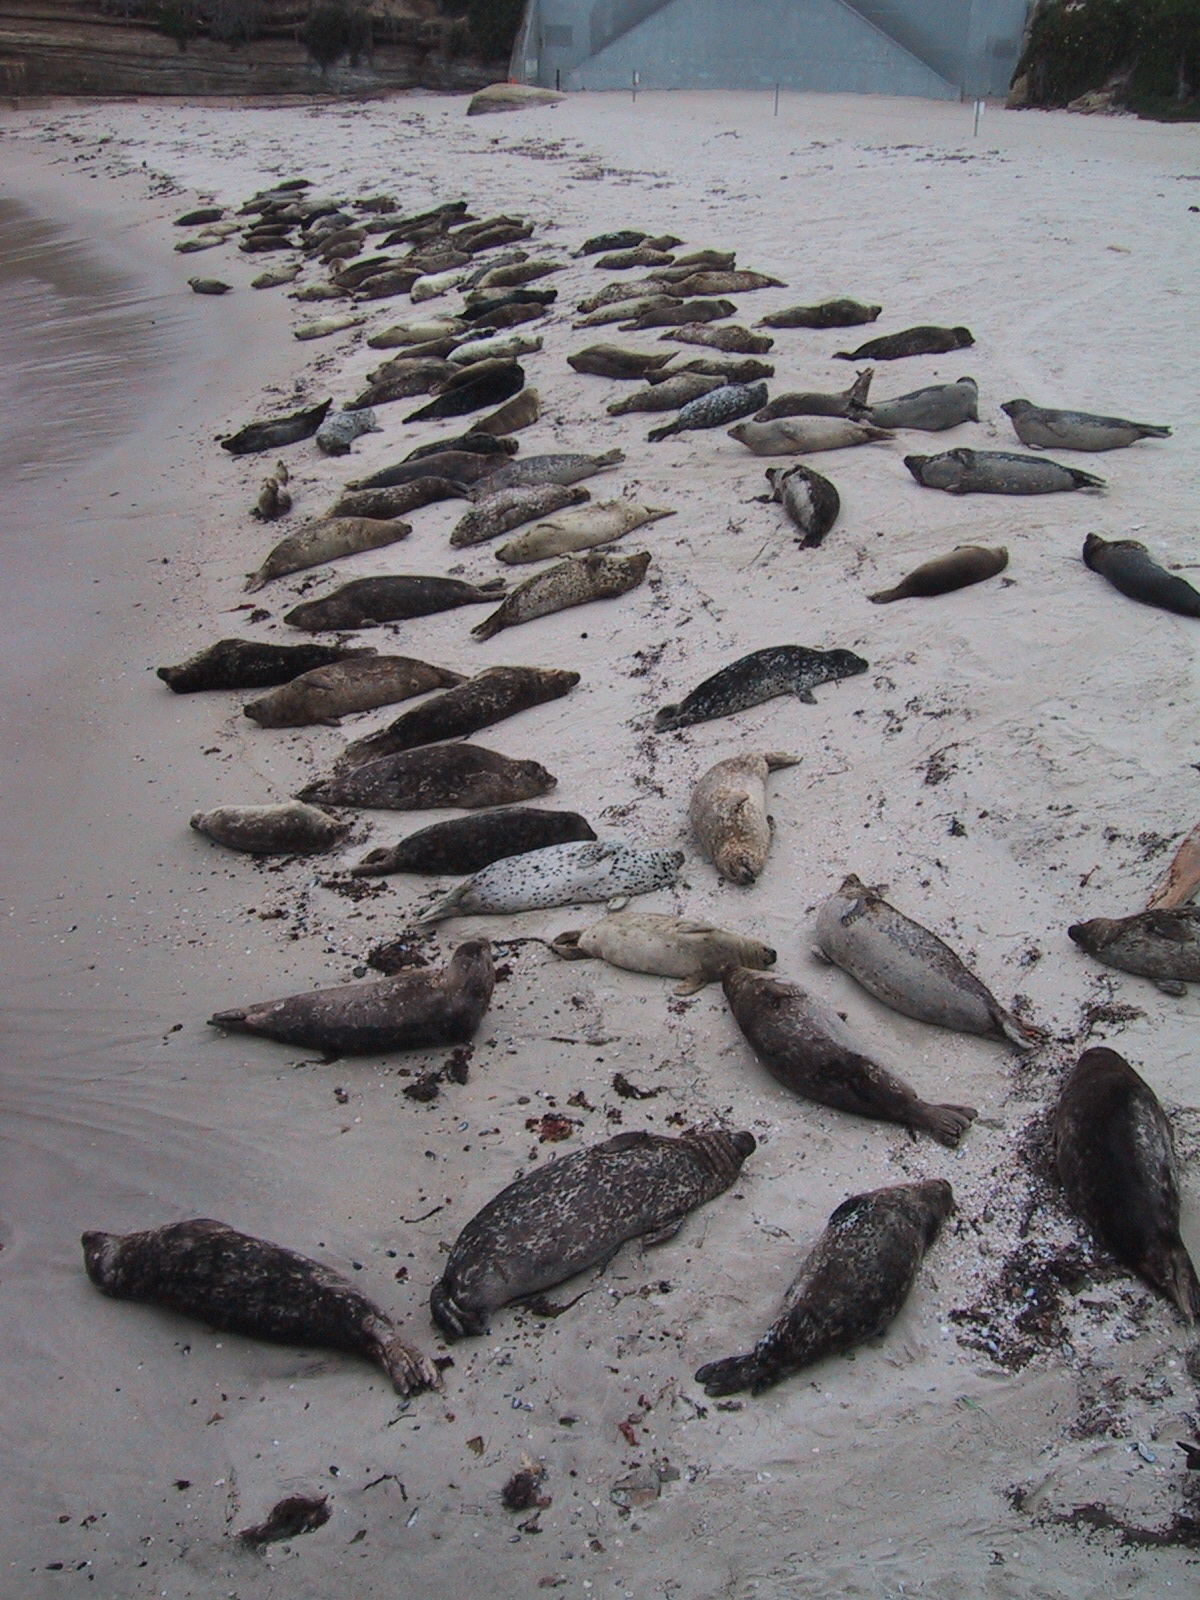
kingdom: Animalia
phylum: Chordata
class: Mammalia
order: Carnivora
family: Phocidae
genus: Phoca
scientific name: Phoca vitulina
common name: Harbor seal
